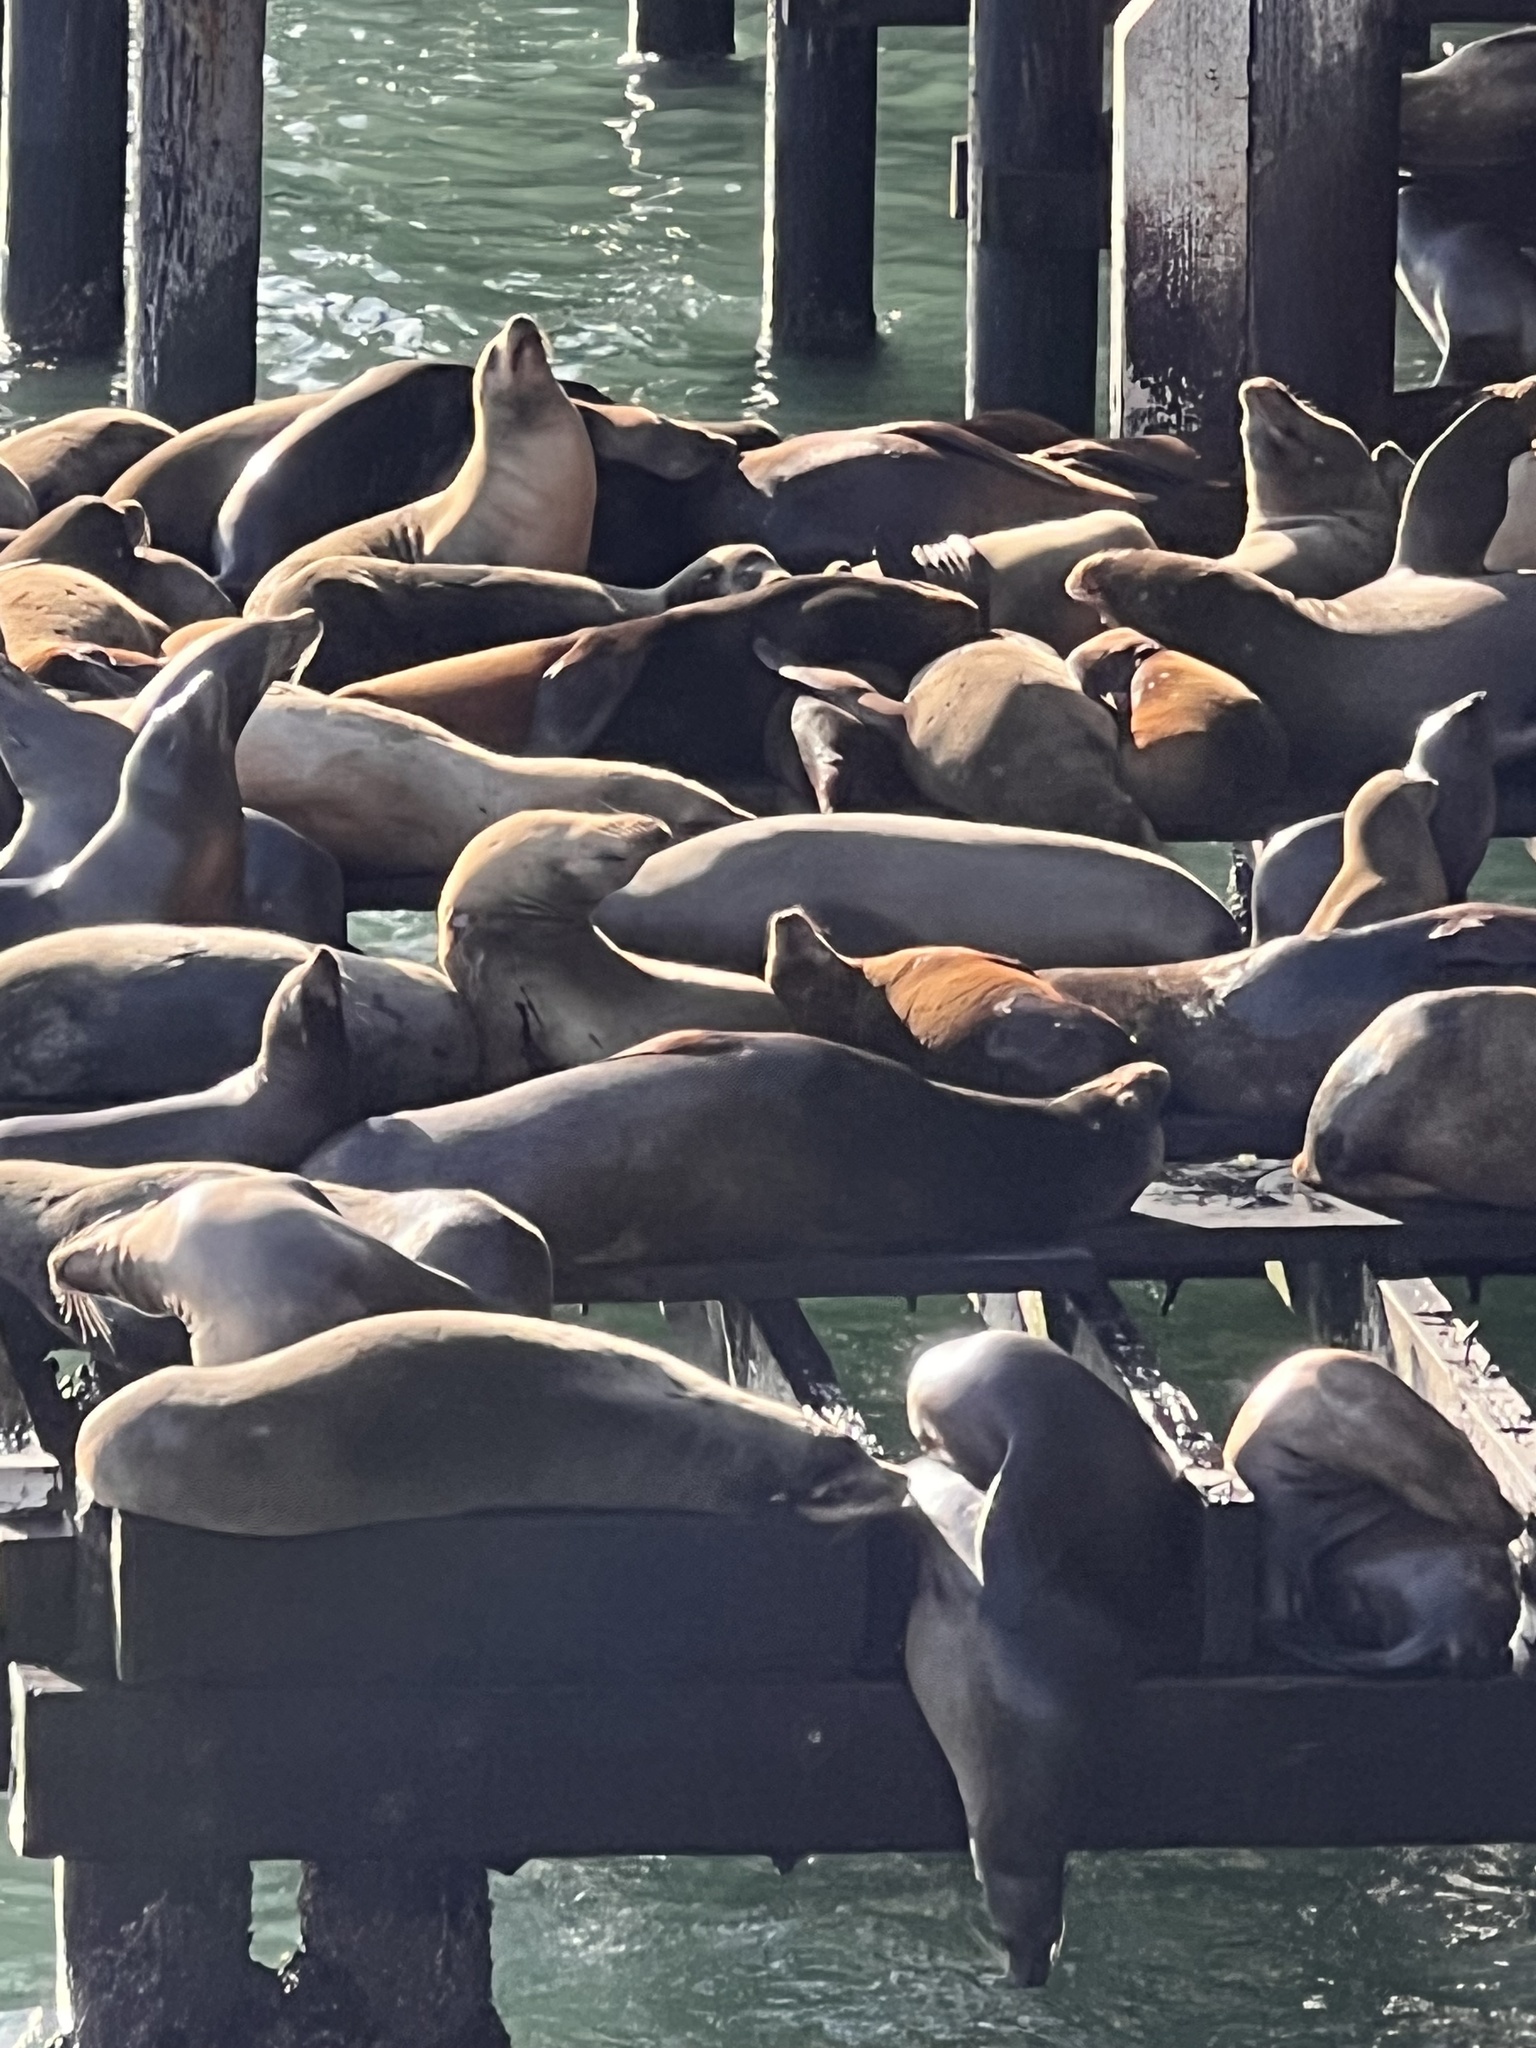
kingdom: Animalia
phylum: Chordata
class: Mammalia
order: Carnivora
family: Otariidae
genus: Zalophus
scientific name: Zalophus californianus
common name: California sea lion
